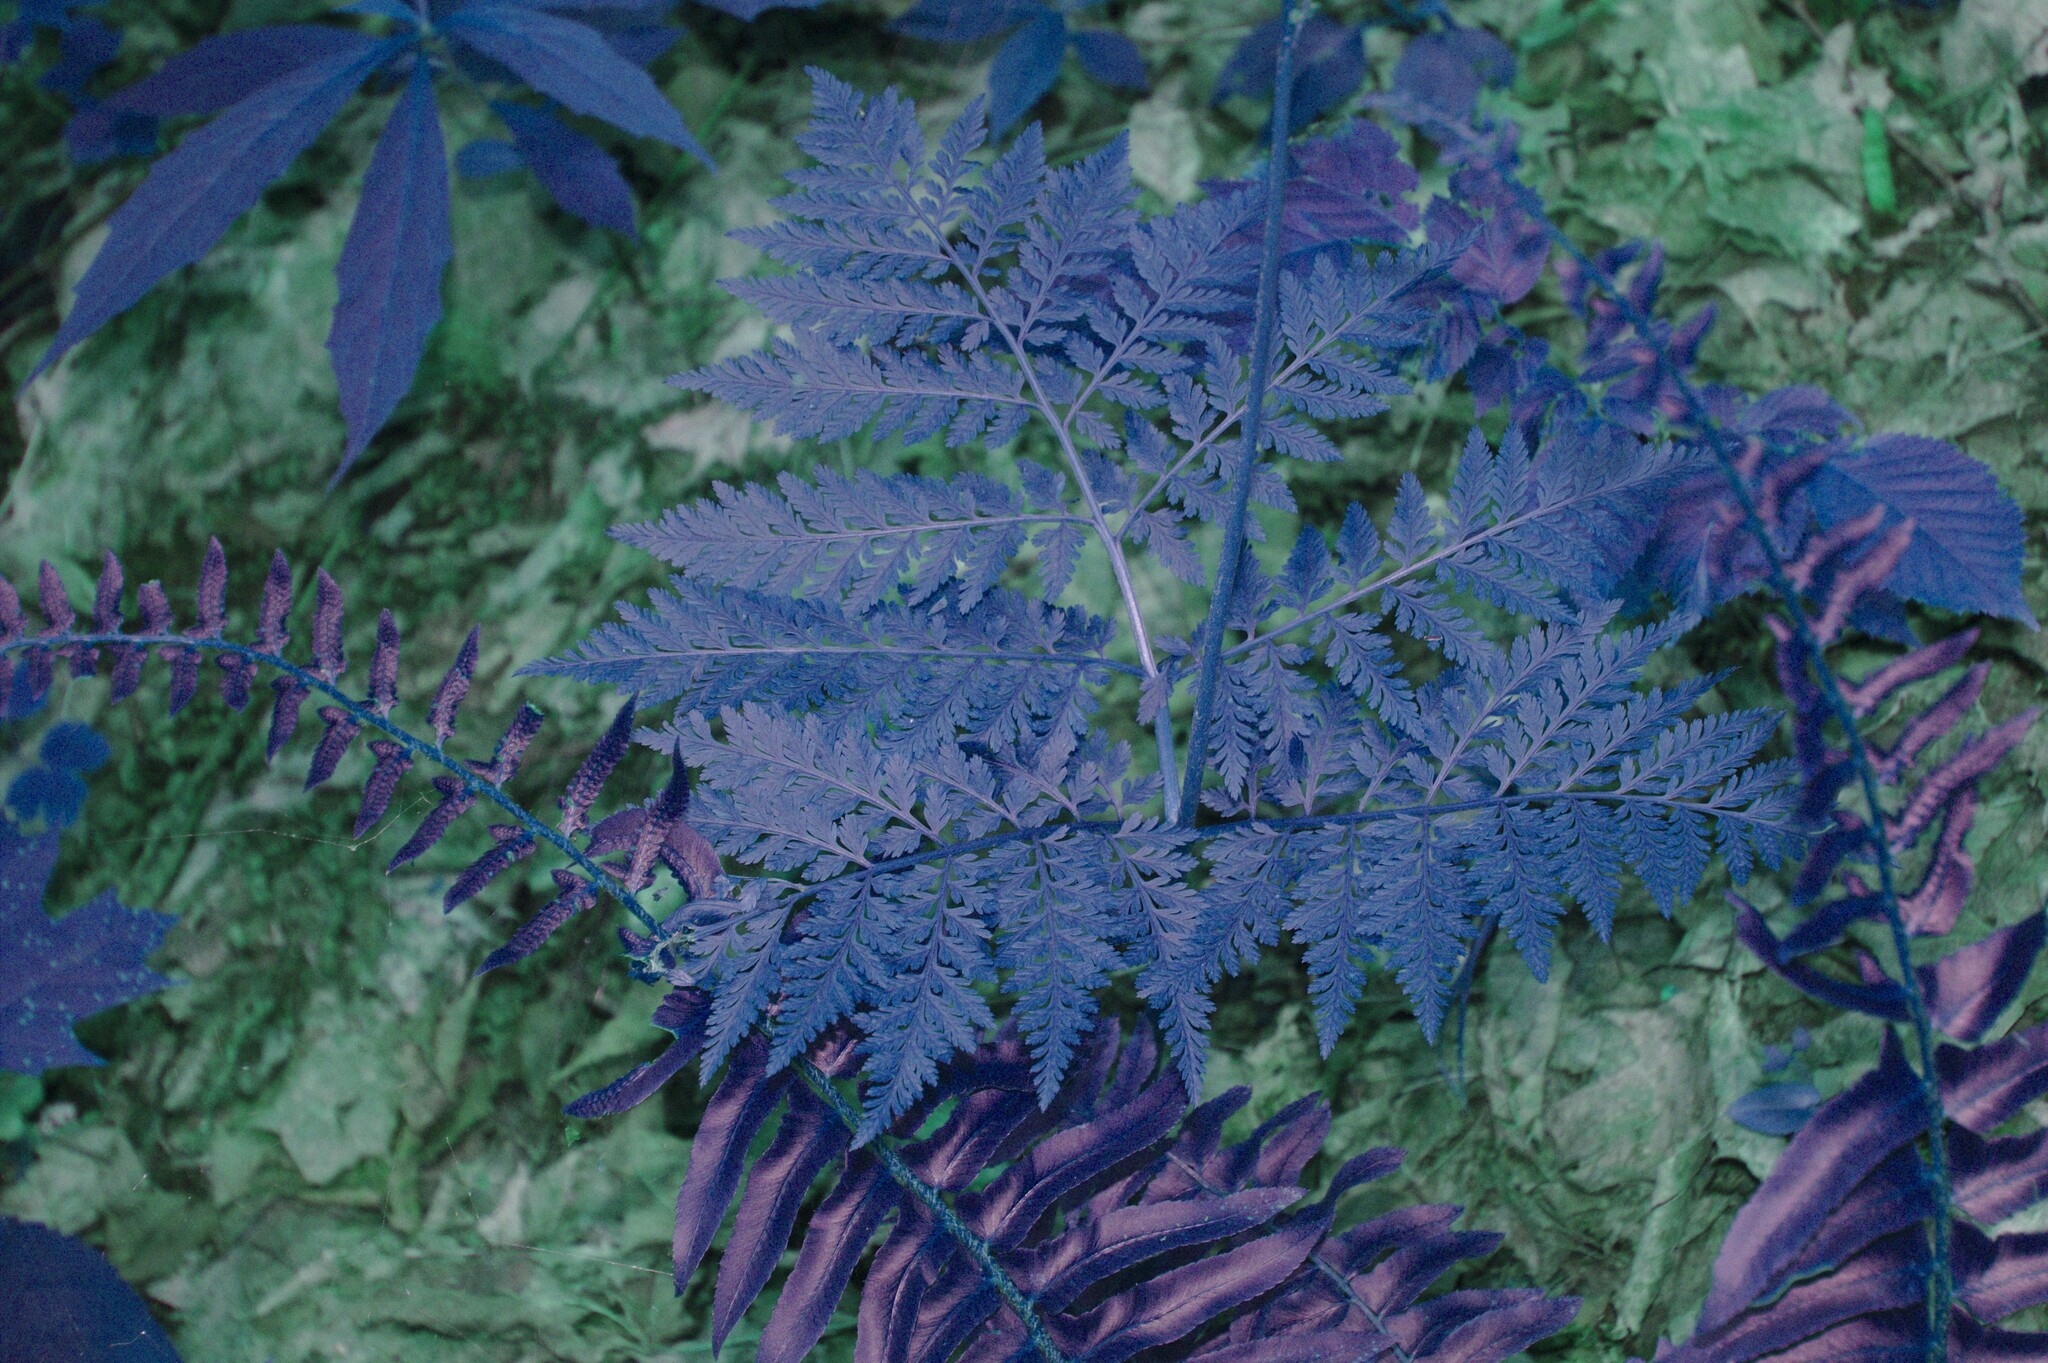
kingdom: Plantae
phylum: Tracheophyta
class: Polypodiopsida
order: Polypodiales
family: Dryopteridaceae
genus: Polystichum
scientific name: Polystichum acrostichoides
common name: Christmas fern
